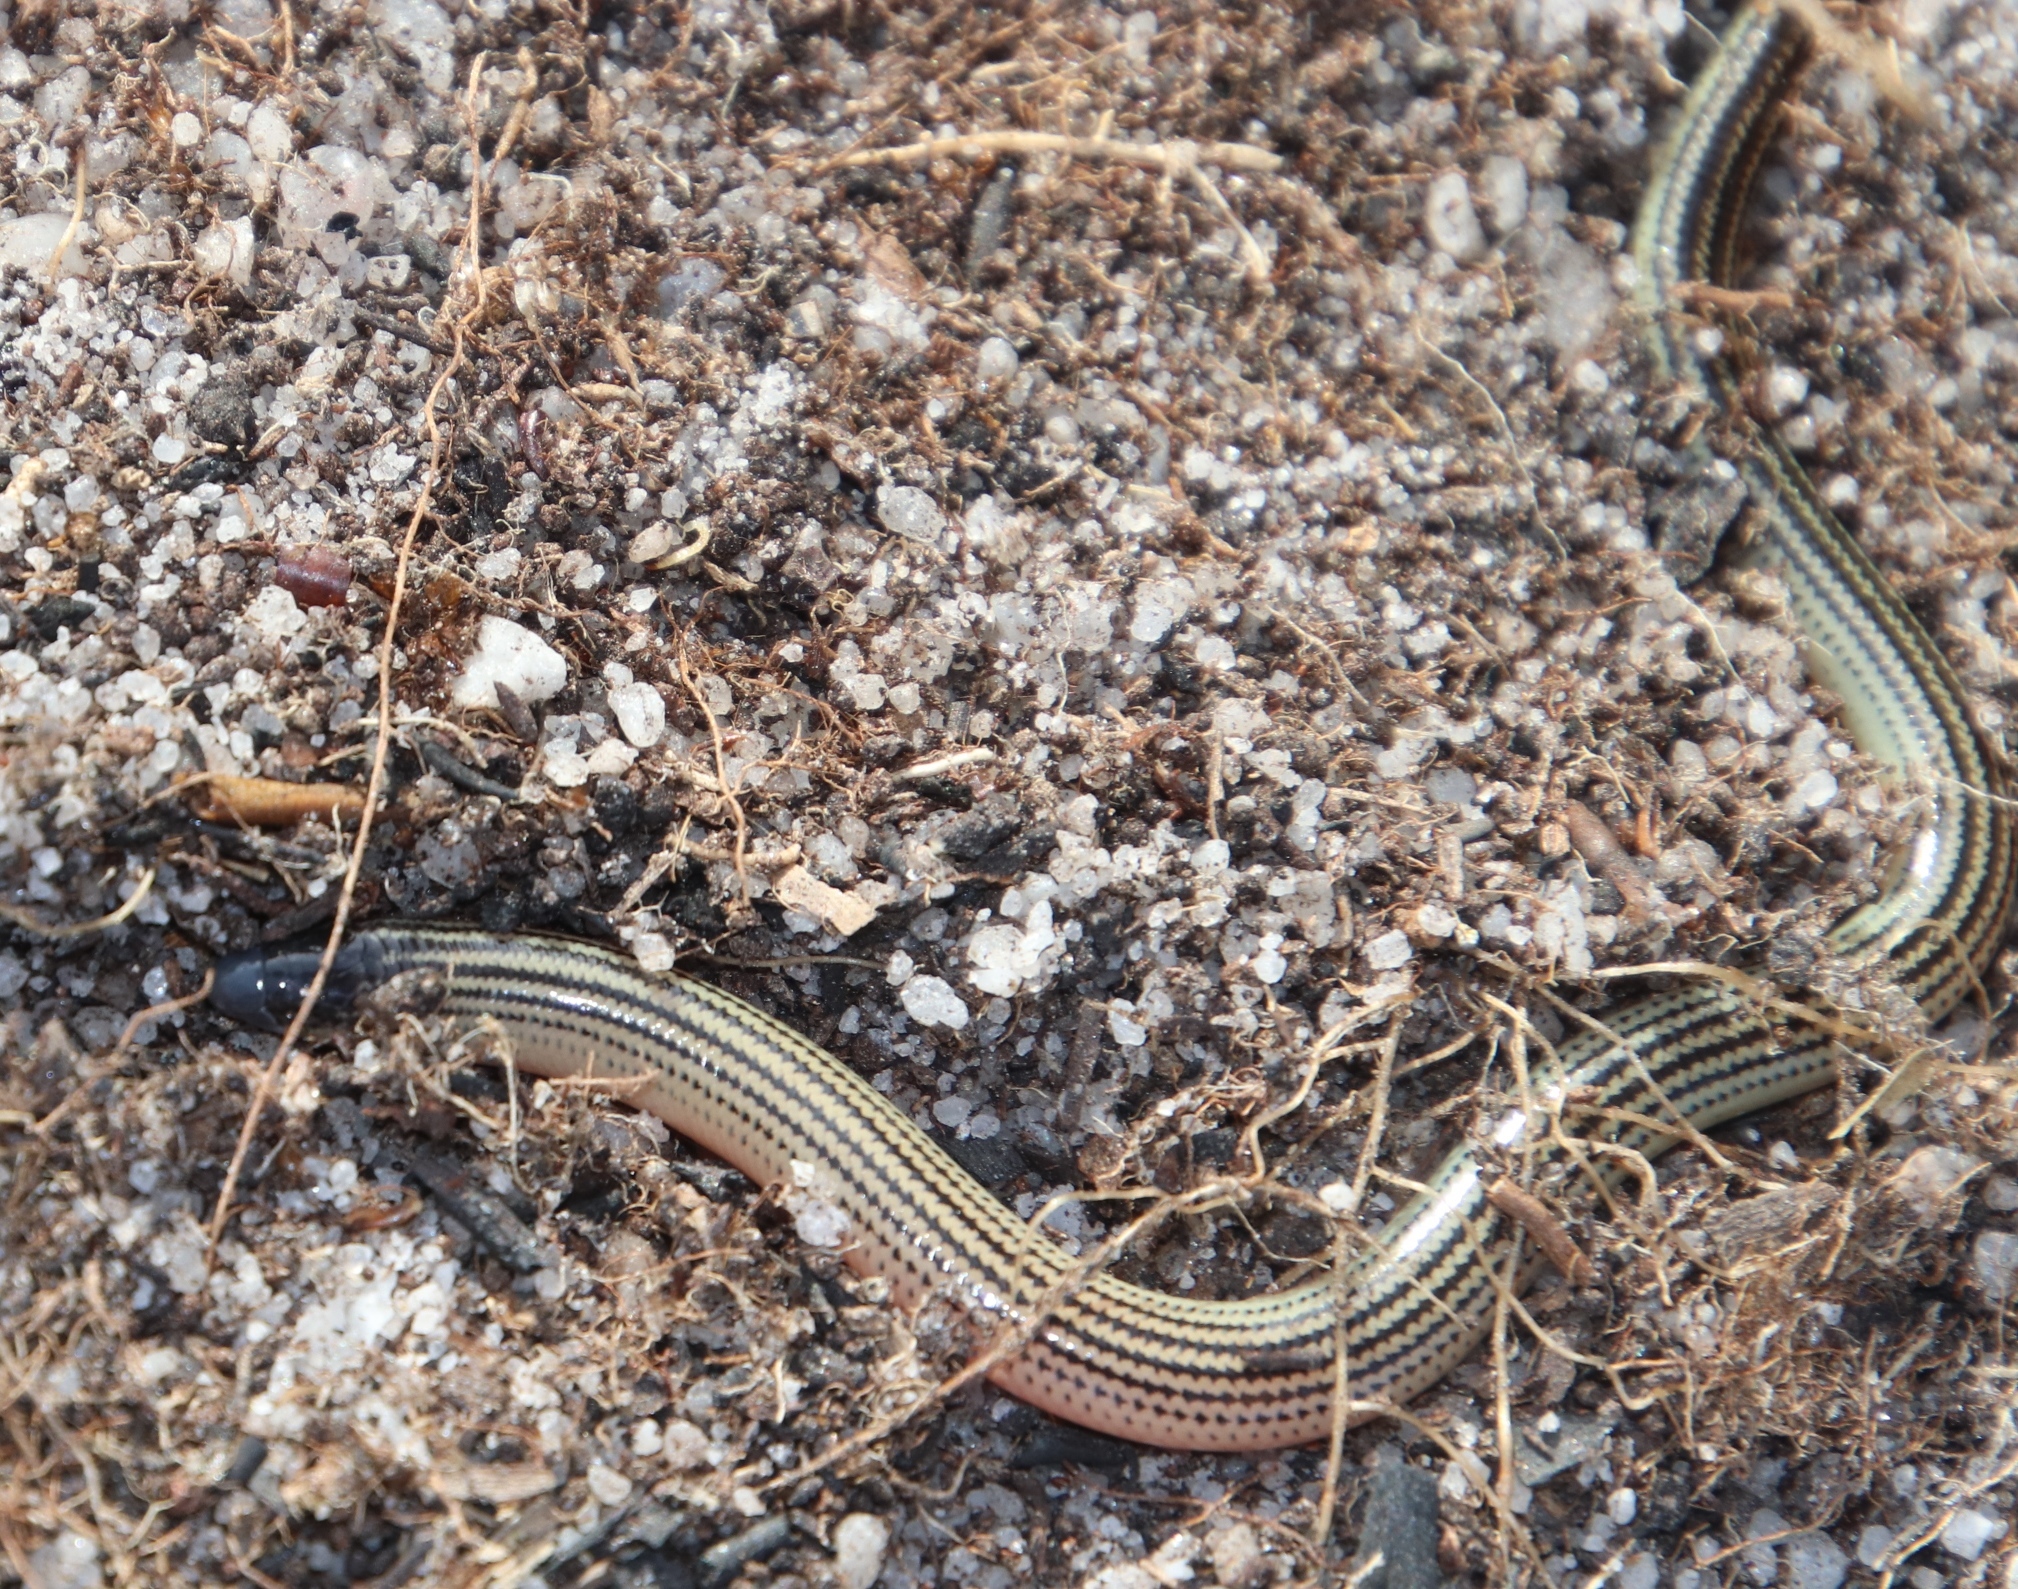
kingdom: Animalia
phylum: Chordata
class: Squamata
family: Scincidae
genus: Acontias
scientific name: Acontias meleagris
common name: Cape legless skink
